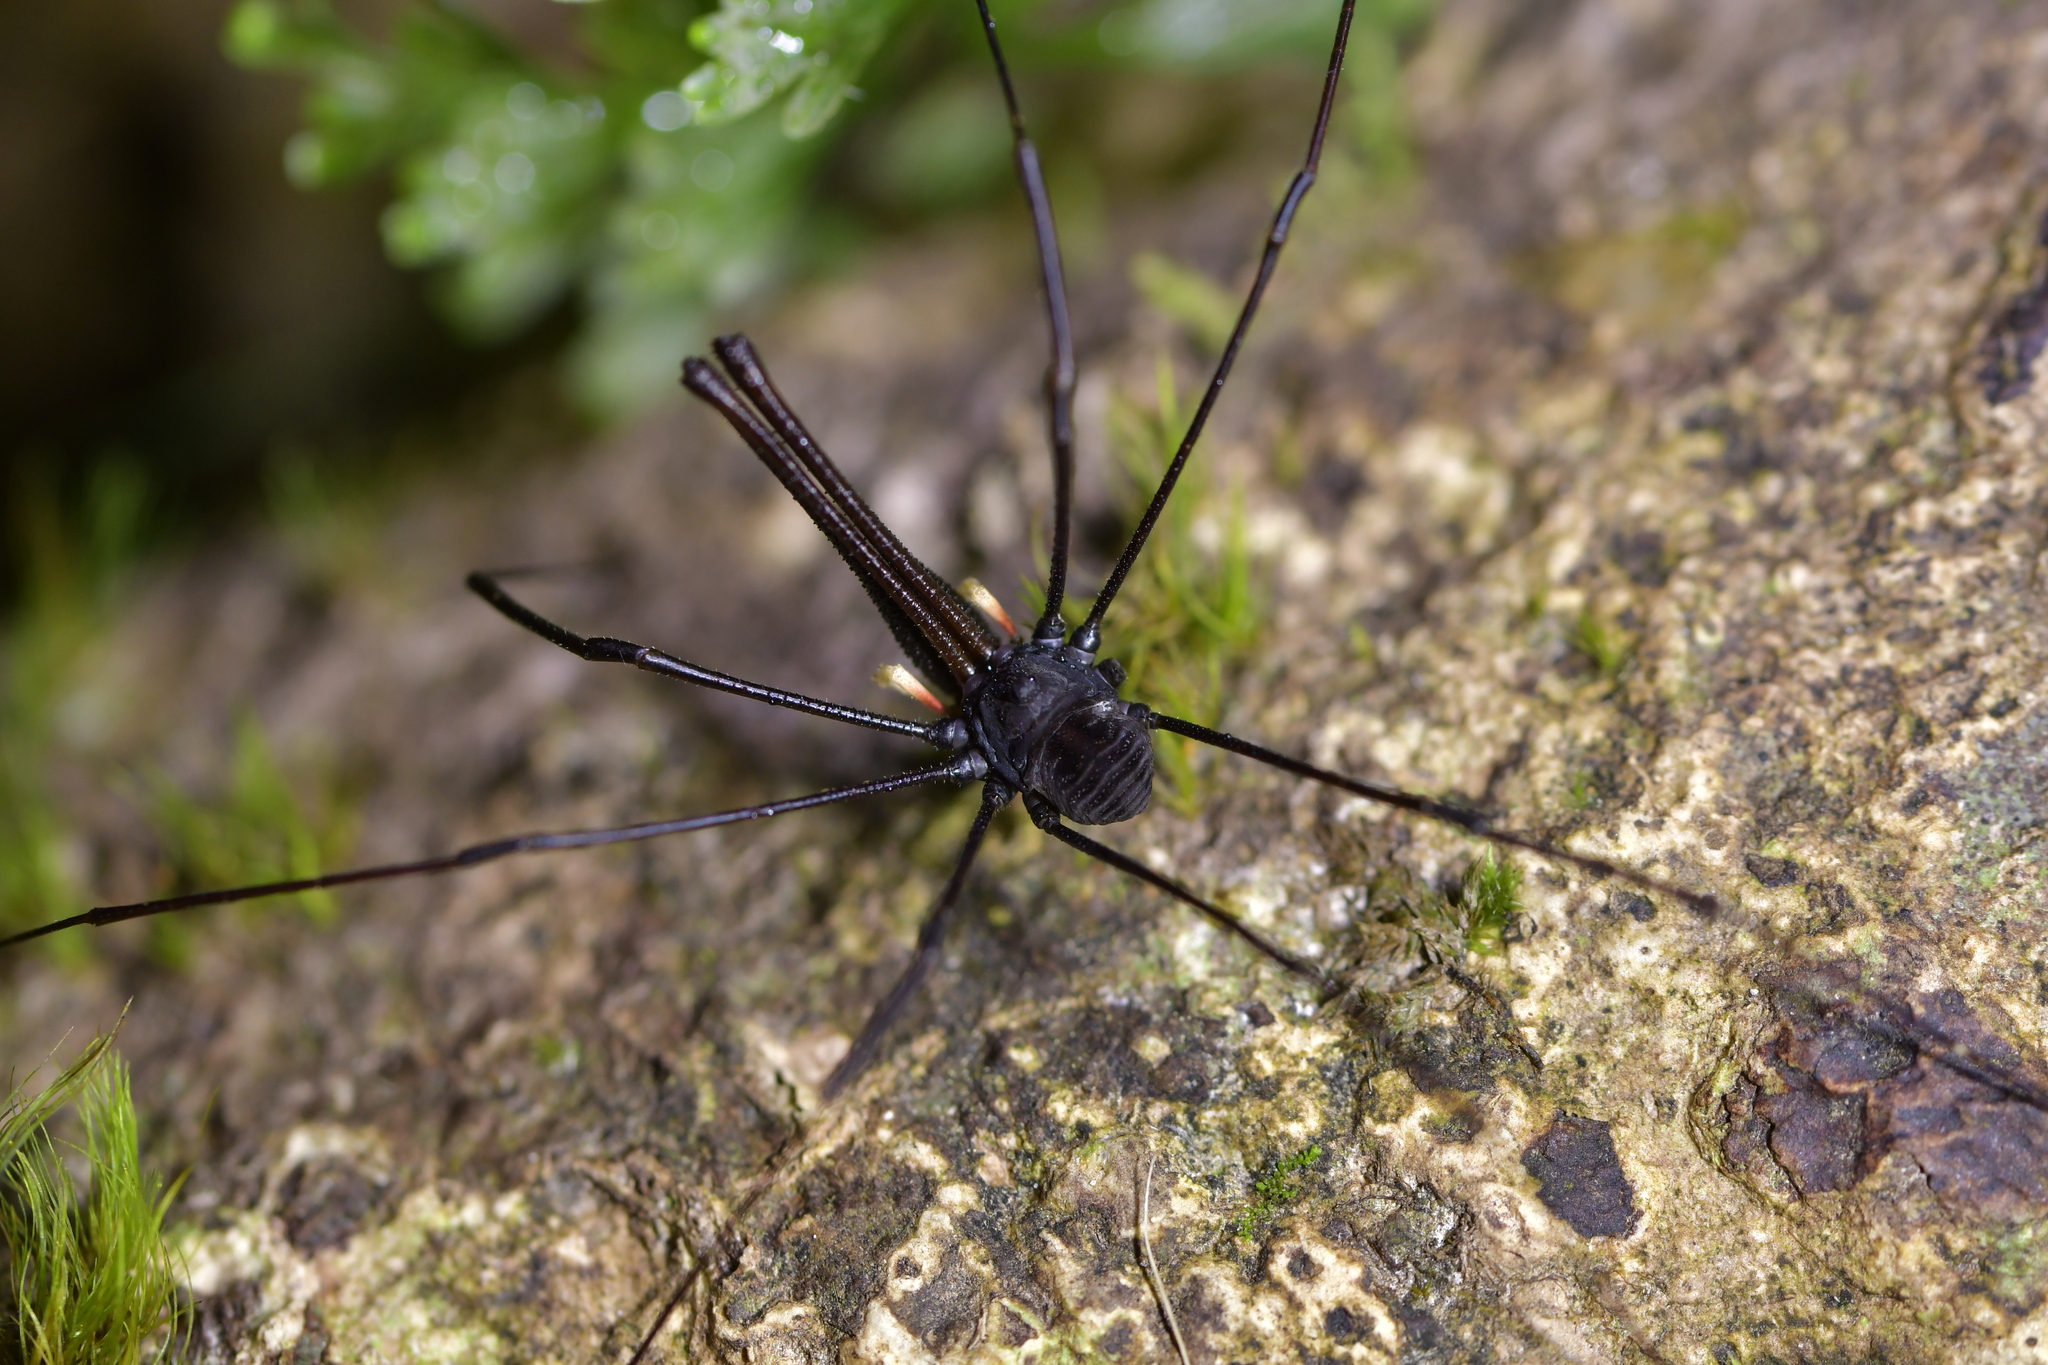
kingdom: Animalia
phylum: Arthropoda
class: Arachnida
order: Opiliones
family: Neopilionidae
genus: Pantopsalis
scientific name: Pantopsalis cheliferoides
